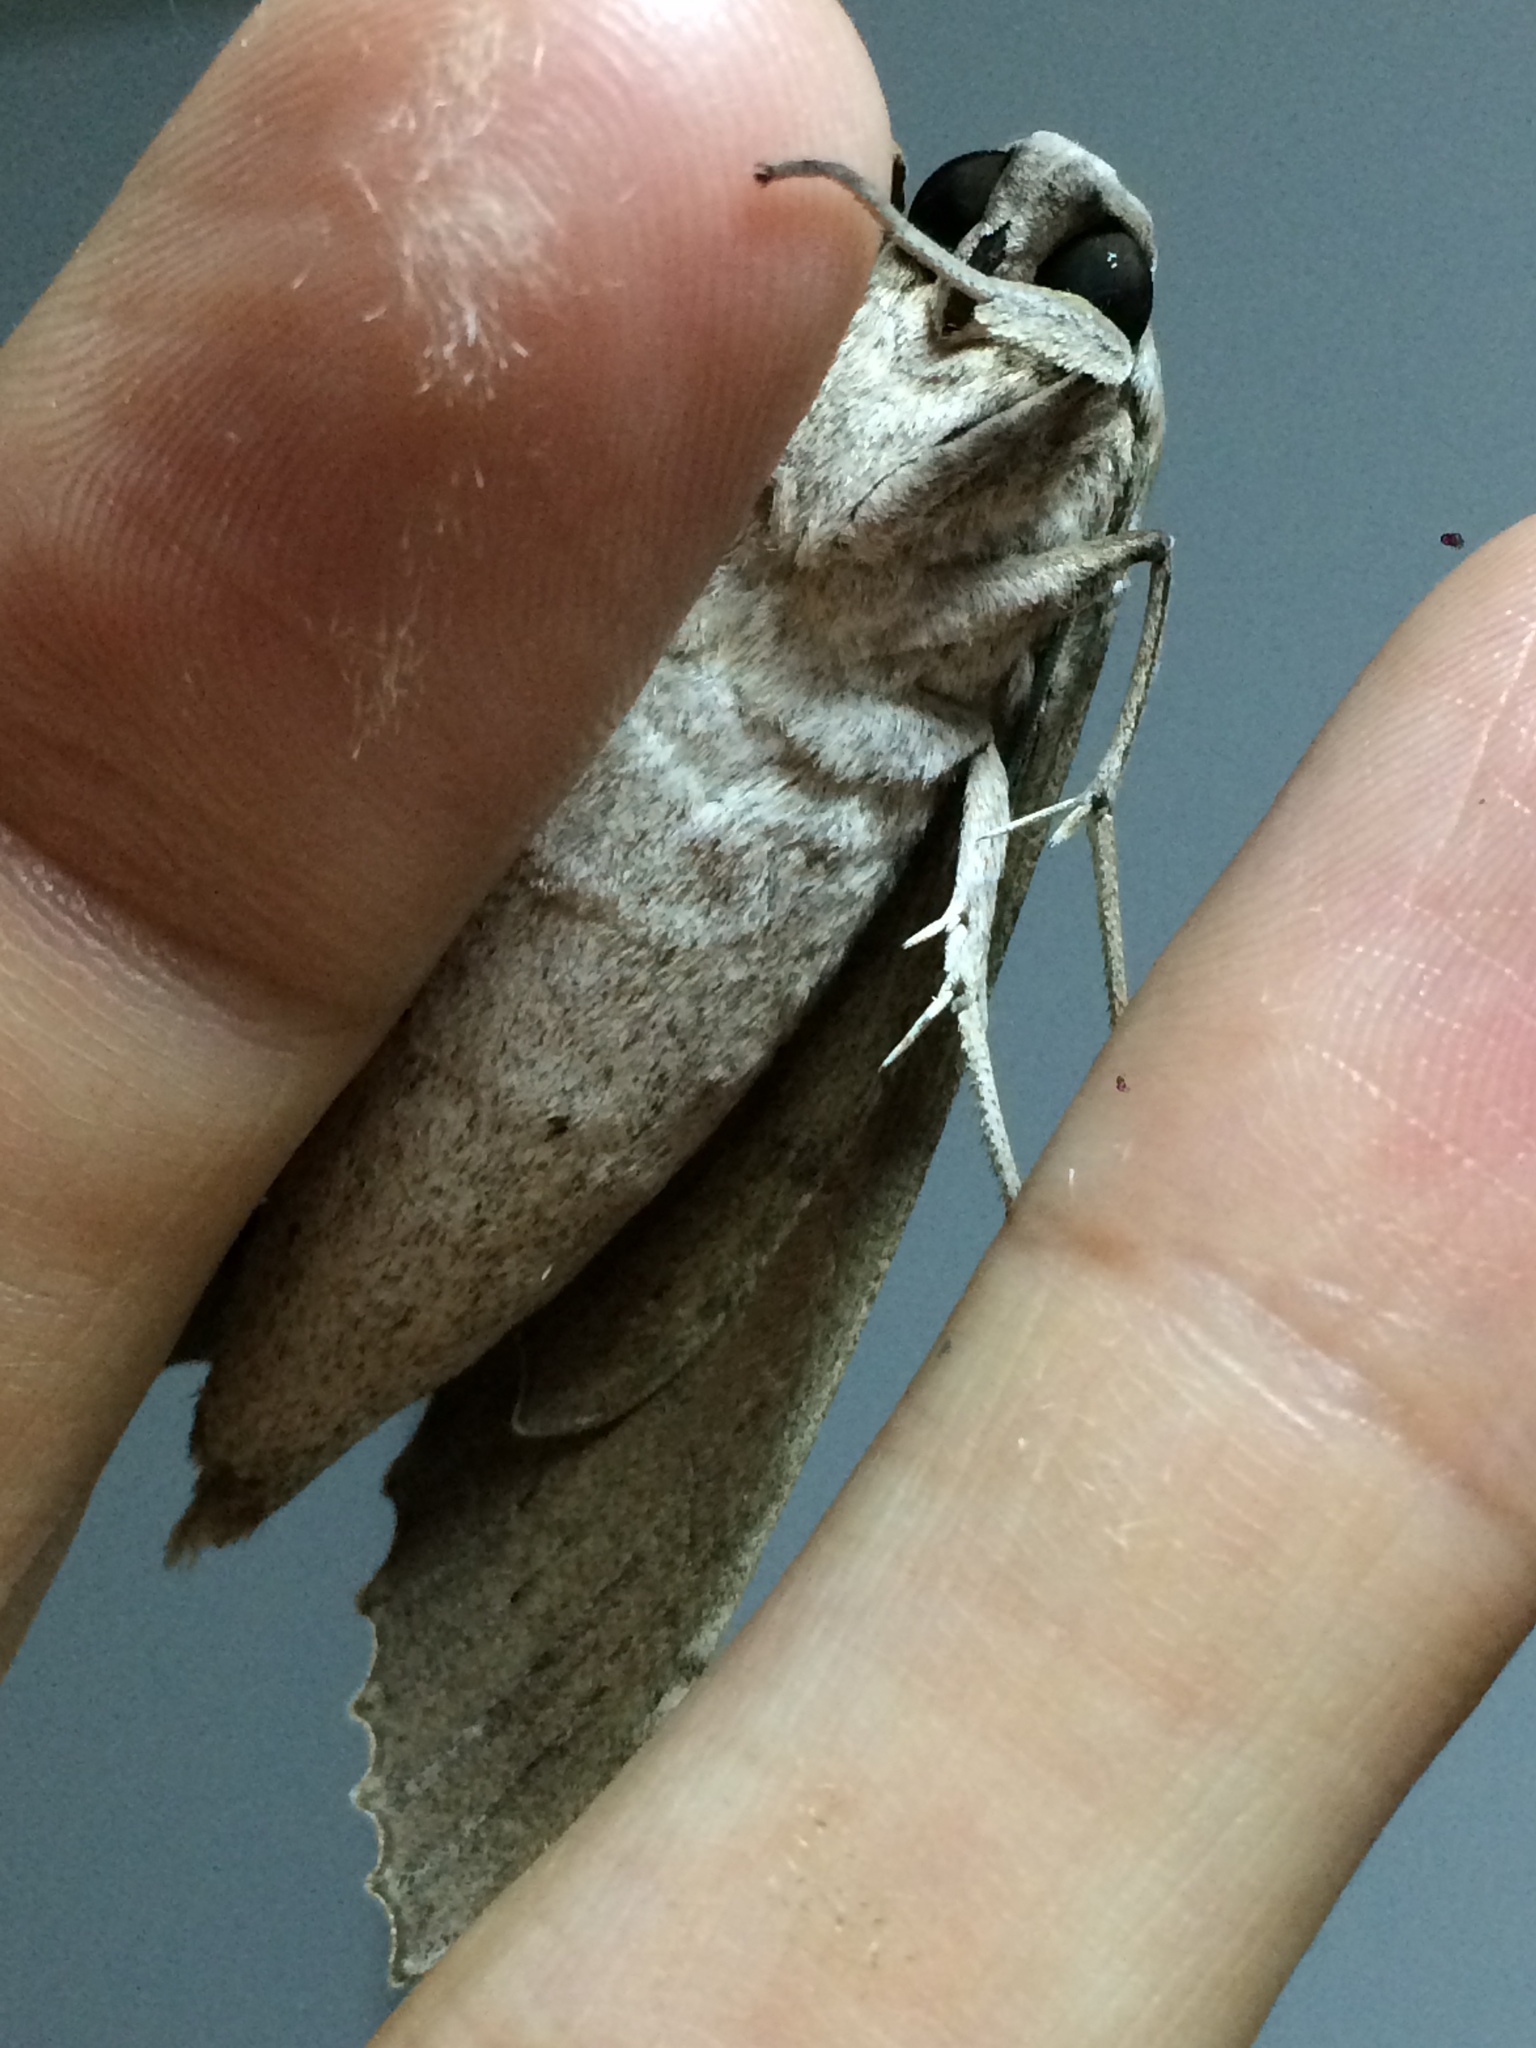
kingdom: Animalia
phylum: Arthropoda
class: Insecta
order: Lepidoptera
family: Sphingidae
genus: Erinnyis
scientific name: Erinnyis ello
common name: Ello sphinx
